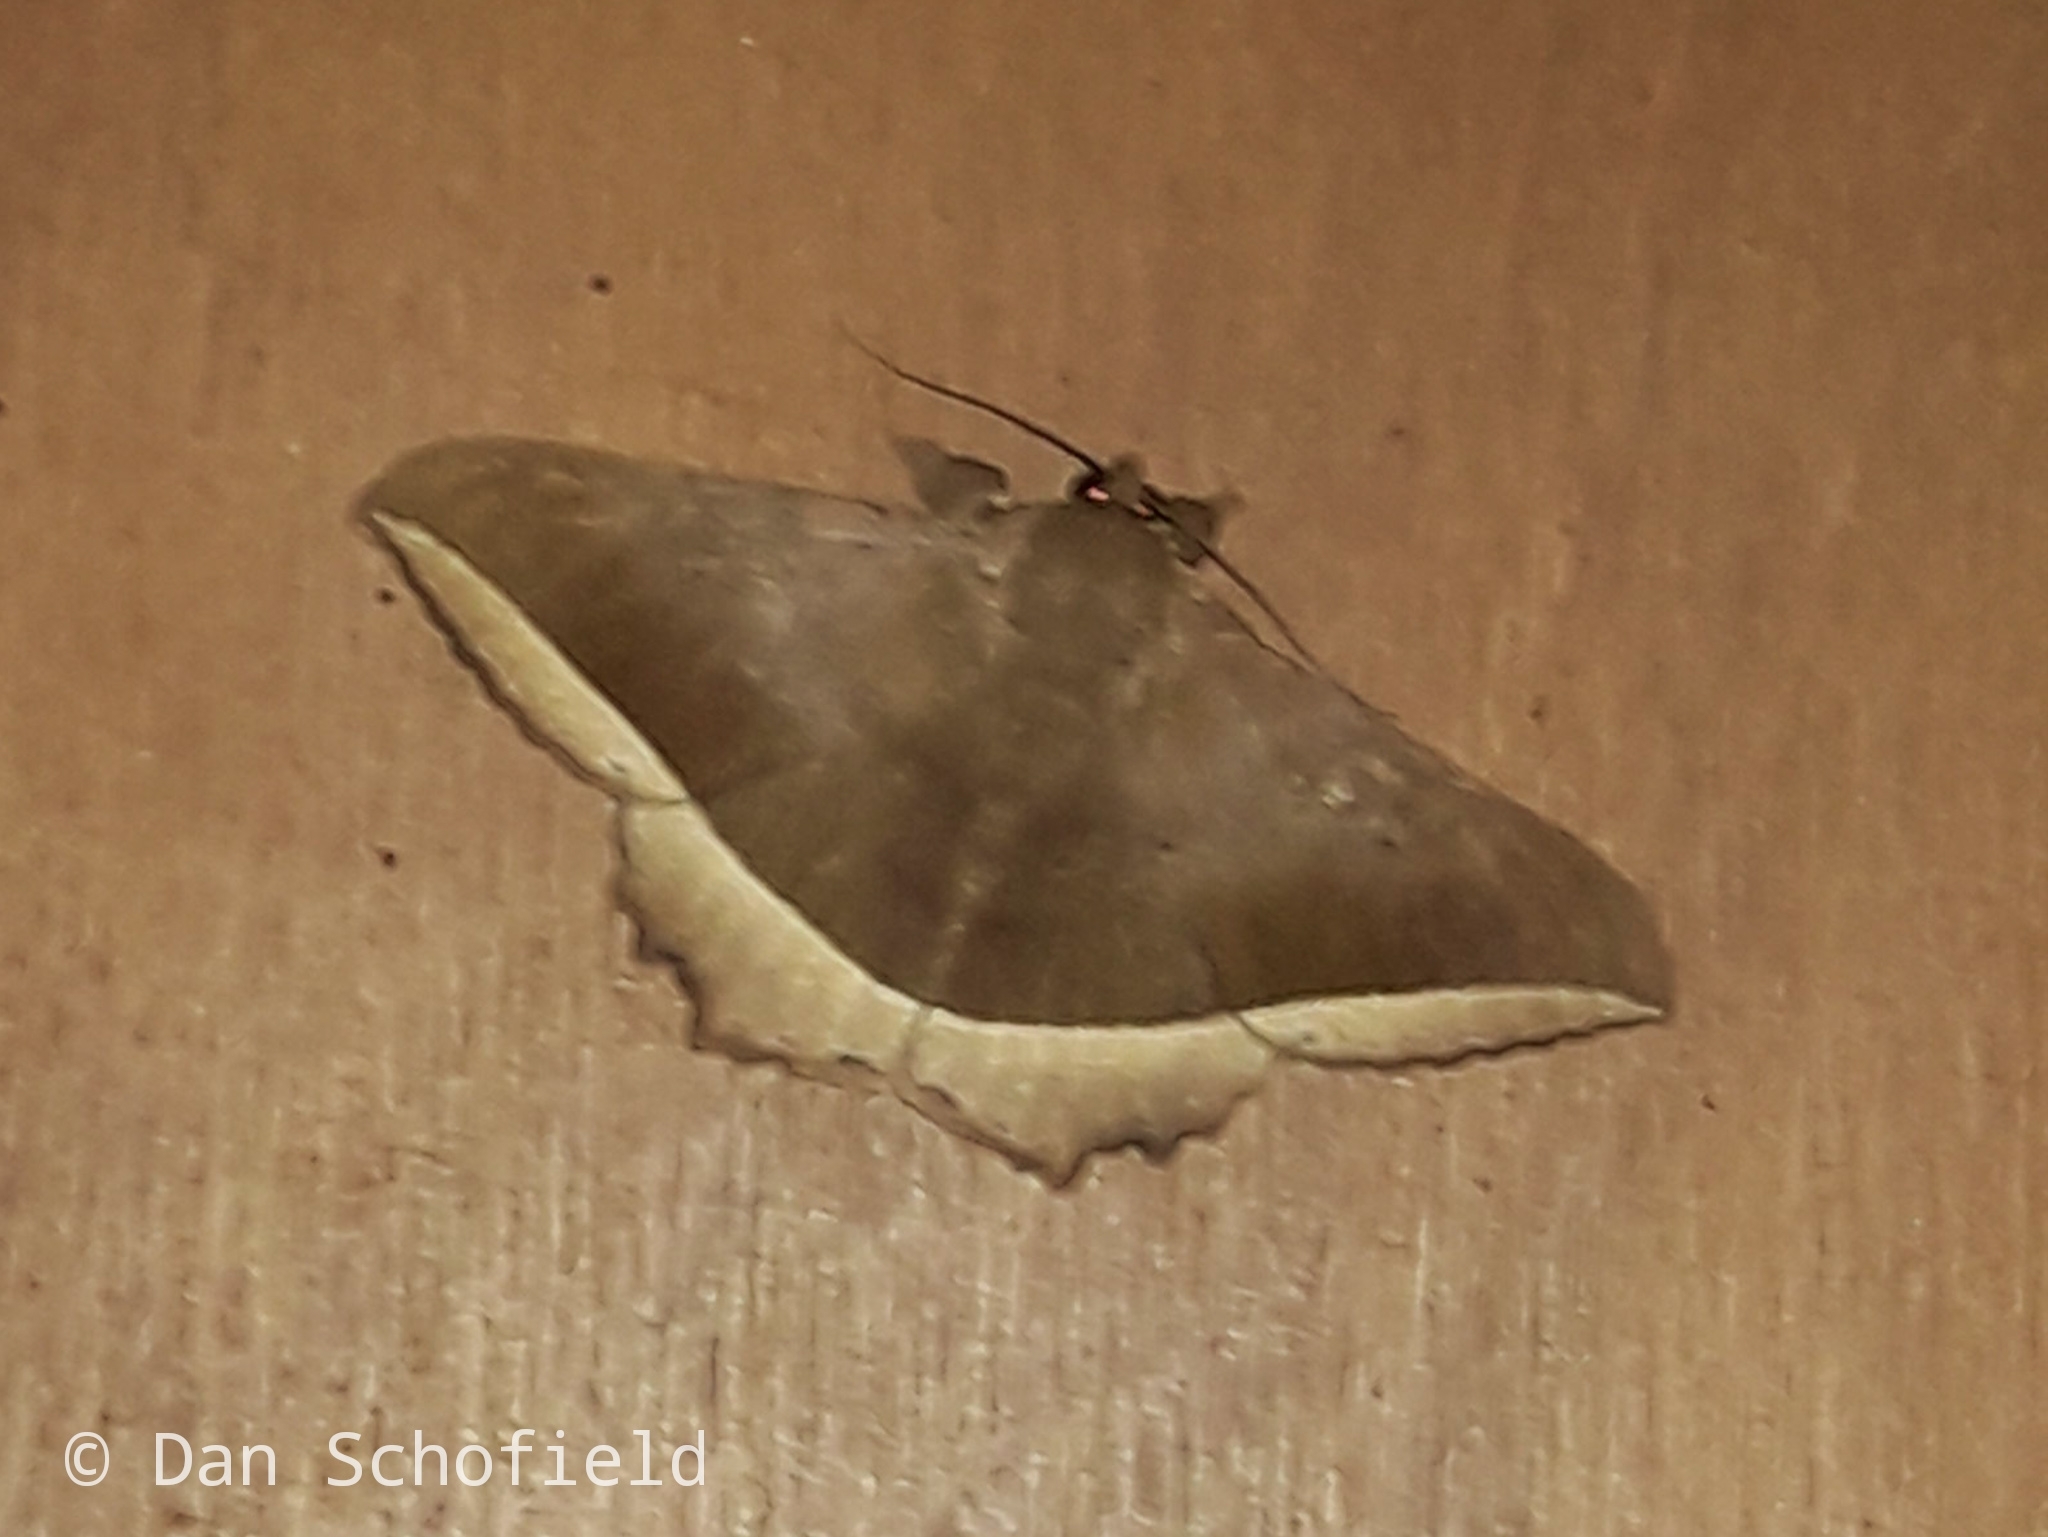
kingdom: Animalia
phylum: Arthropoda
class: Insecta
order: Lepidoptera
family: Erebidae
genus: Hulodes
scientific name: Hulodes caranea
